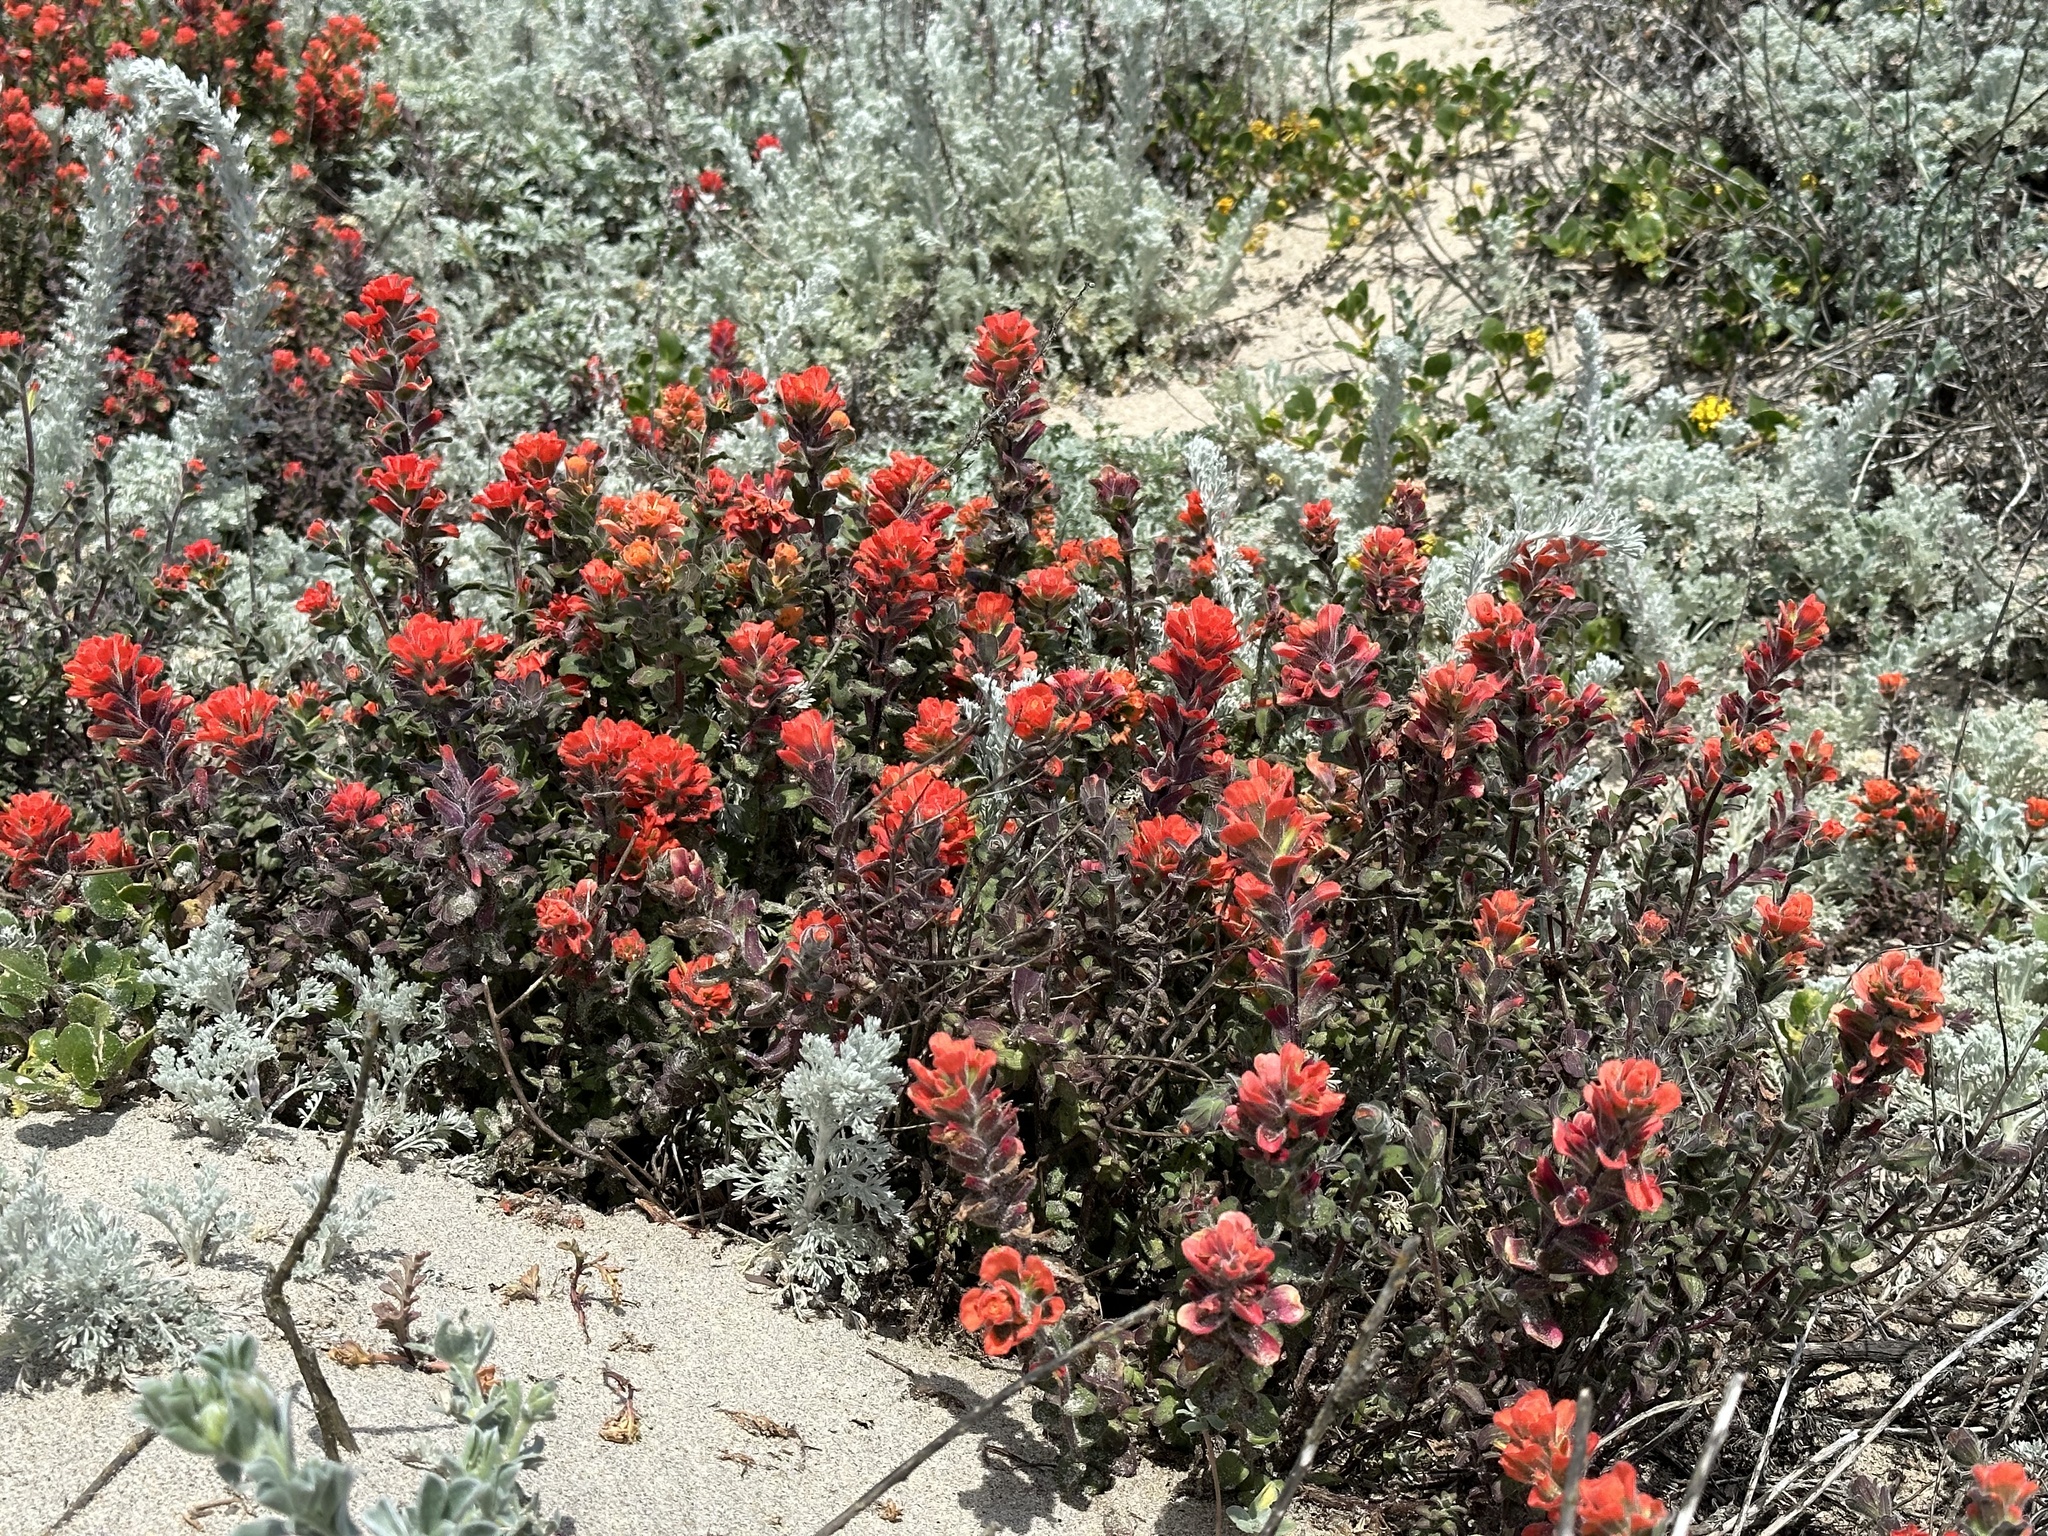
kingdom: Plantae
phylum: Tracheophyta
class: Magnoliopsida
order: Lamiales
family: Orobanchaceae
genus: Castilleja
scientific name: Castilleja latifolia
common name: Monterey indian paintbrush
